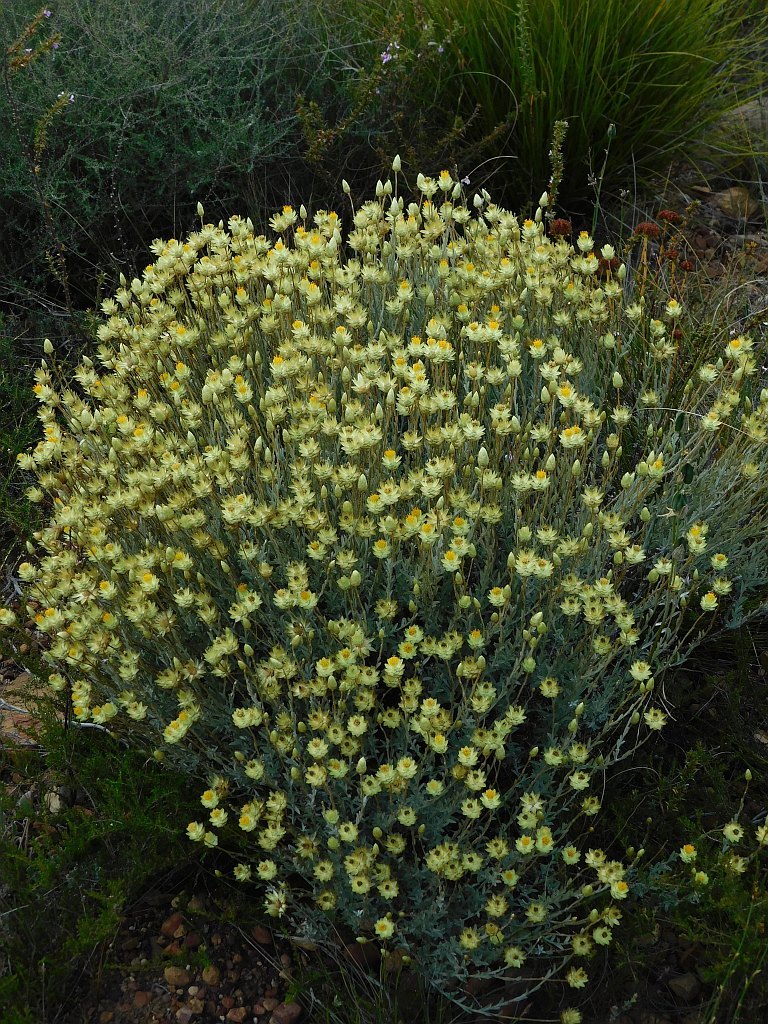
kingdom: Plantae
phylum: Tracheophyta
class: Magnoliopsida
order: Asterales
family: Asteraceae
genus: Syncarpha
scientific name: Syncarpha staehelina
